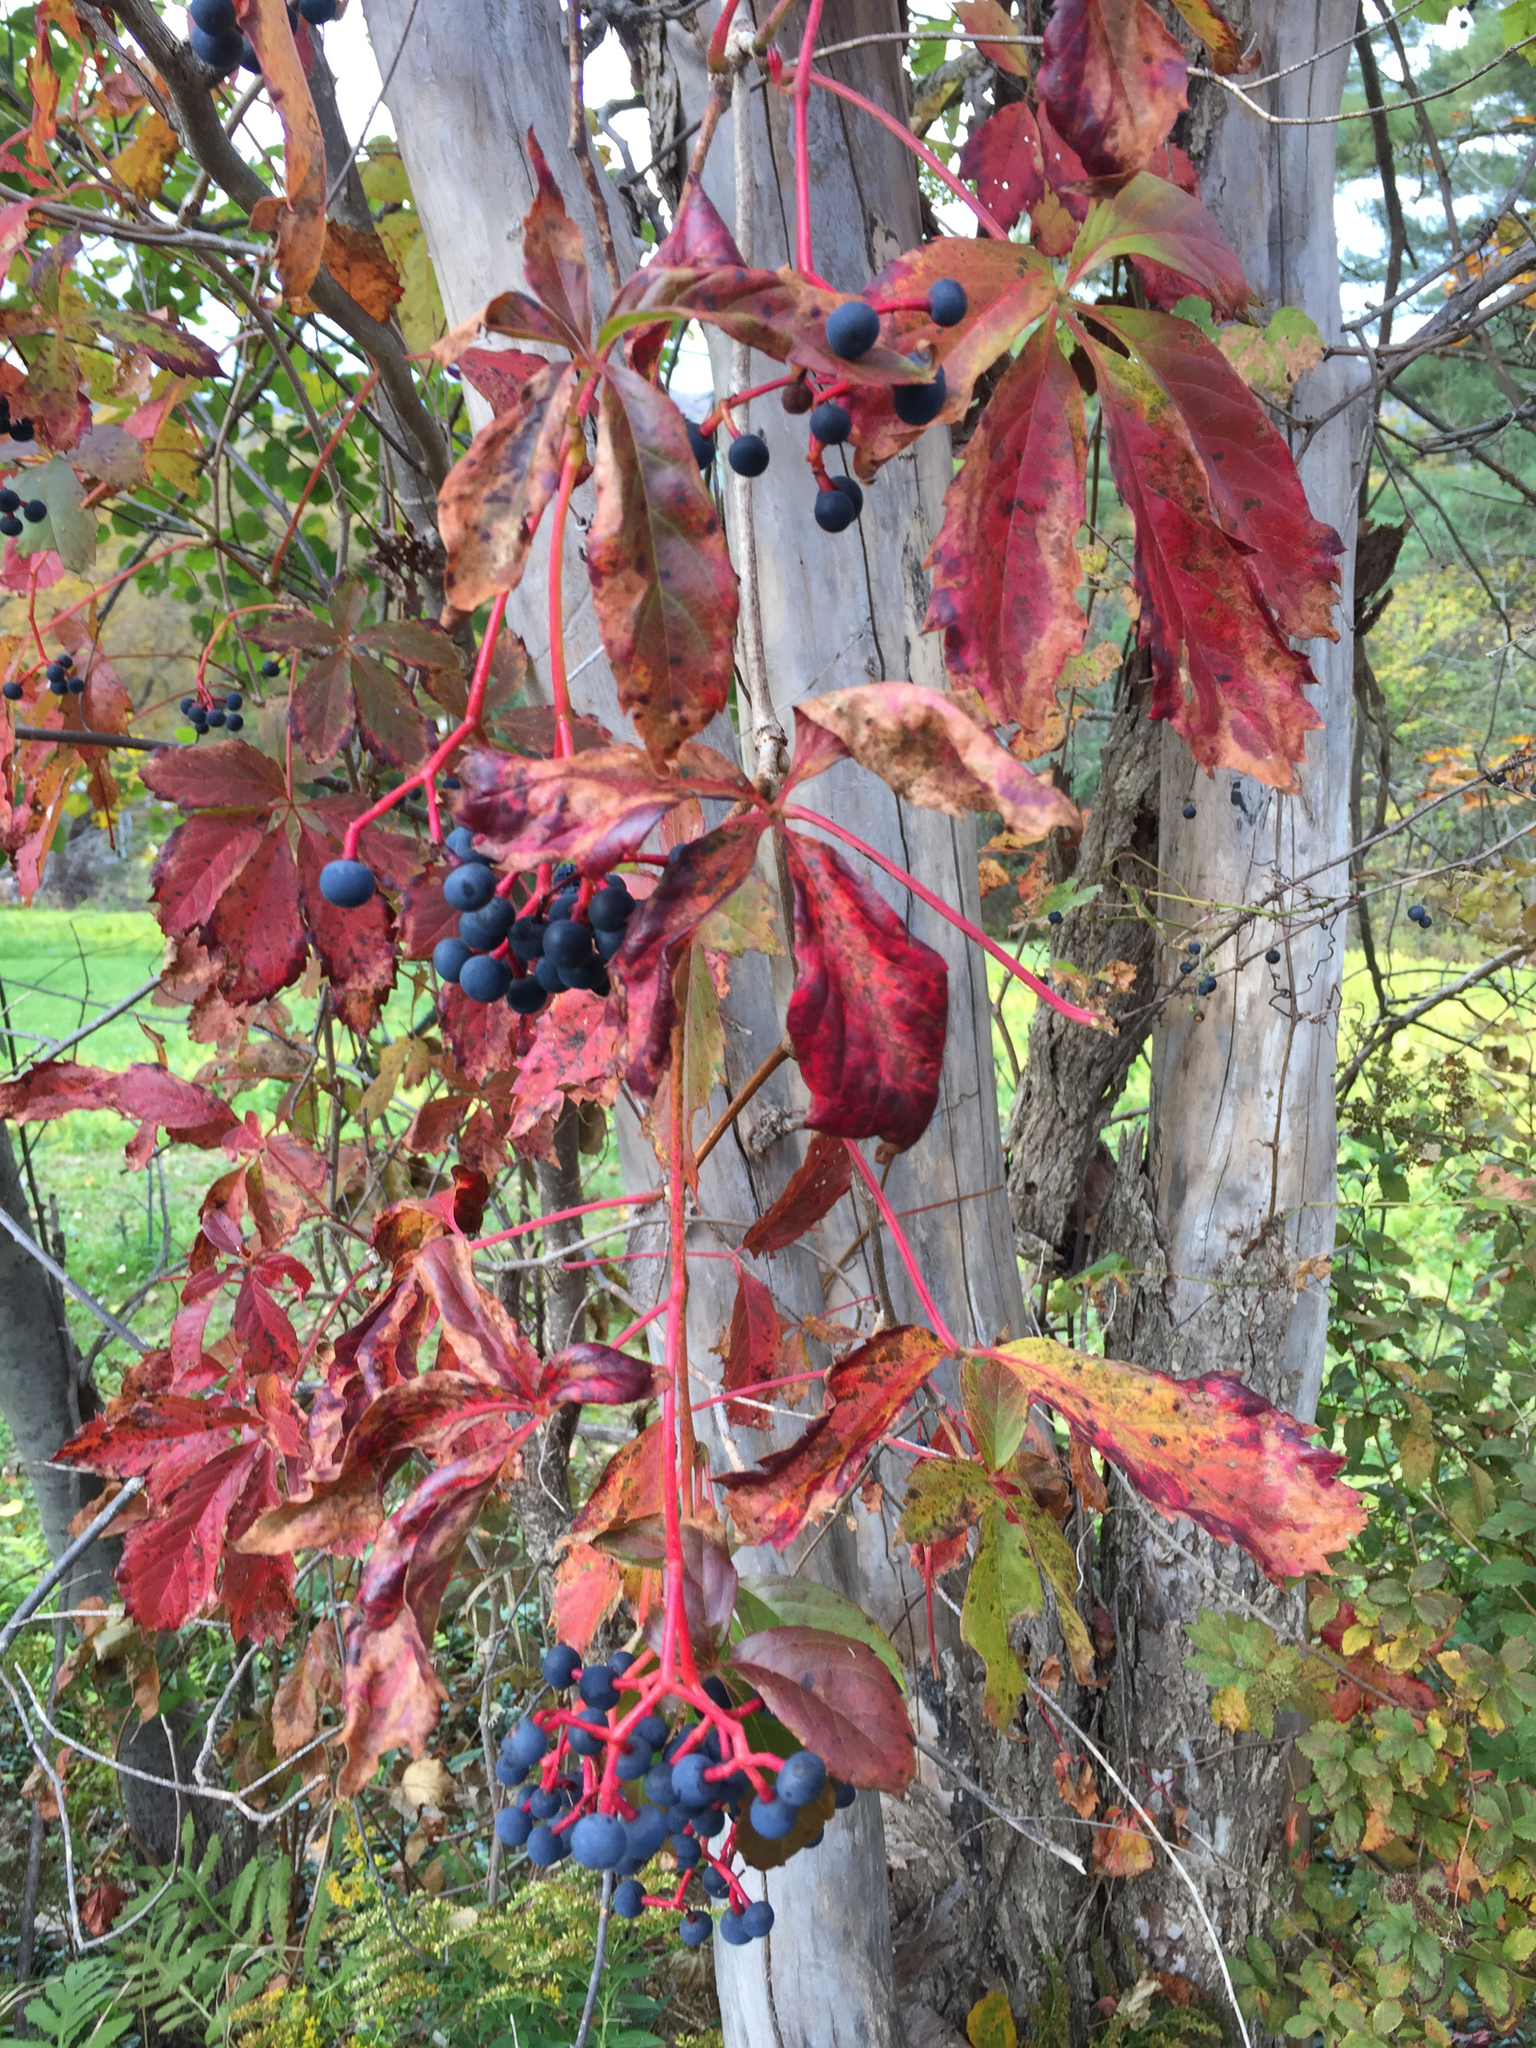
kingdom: Plantae
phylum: Tracheophyta
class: Magnoliopsida
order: Vitales
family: Vitaceae
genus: Parthenocissus
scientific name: Parthenocissus quinquefolia
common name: Virginia-creeper
